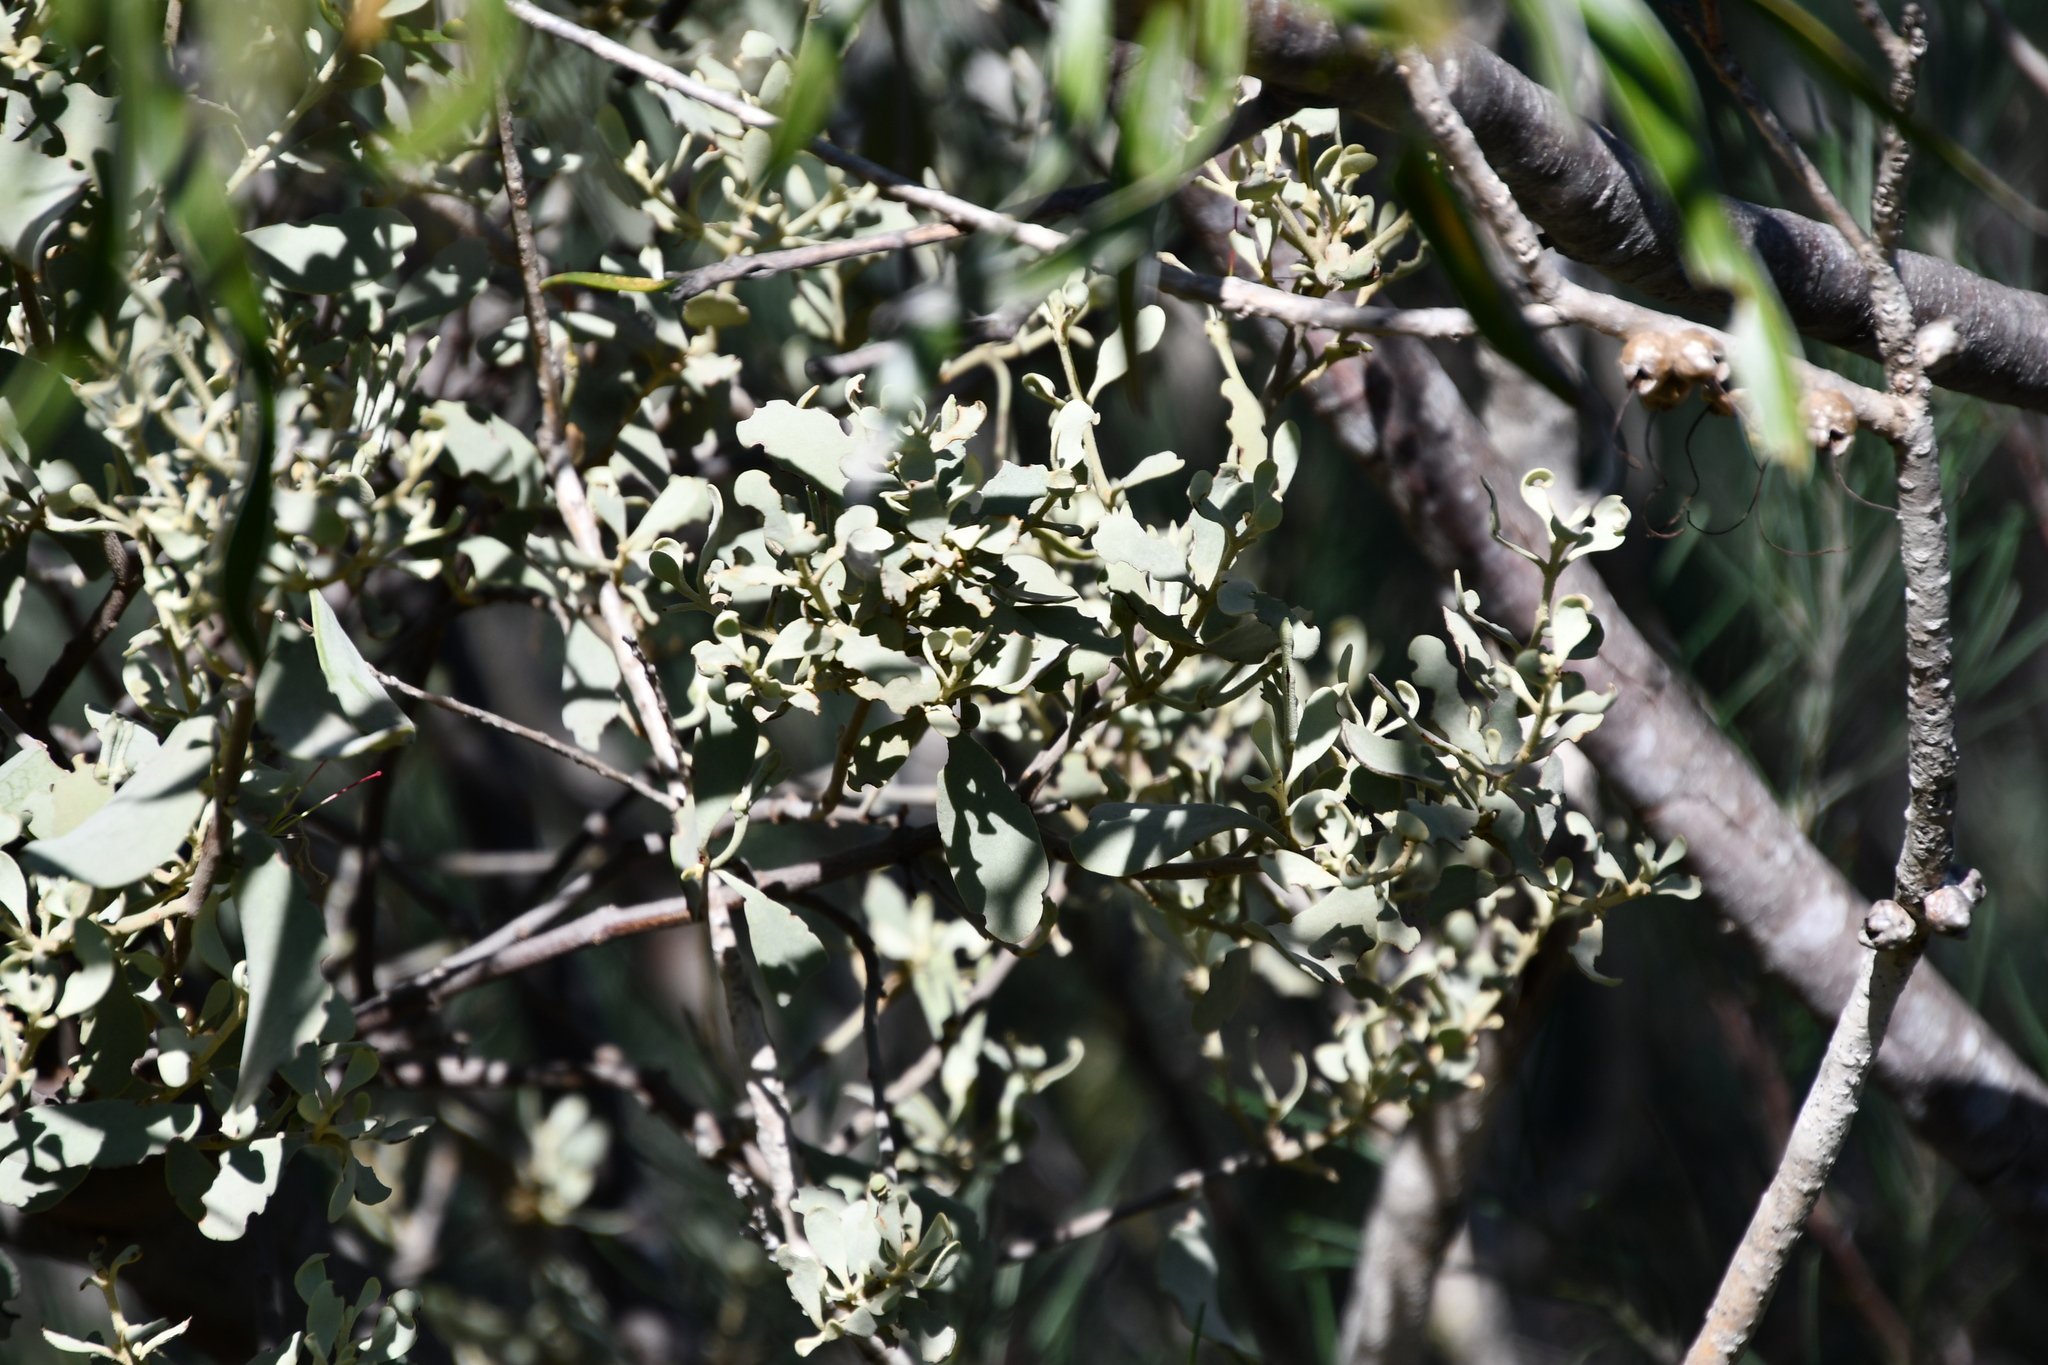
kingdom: Plantae
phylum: Tracheophyta
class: Magnoliopsida
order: Santalales
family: Loranthaceae
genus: Amyema
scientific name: Amyema fitzgeraldii
